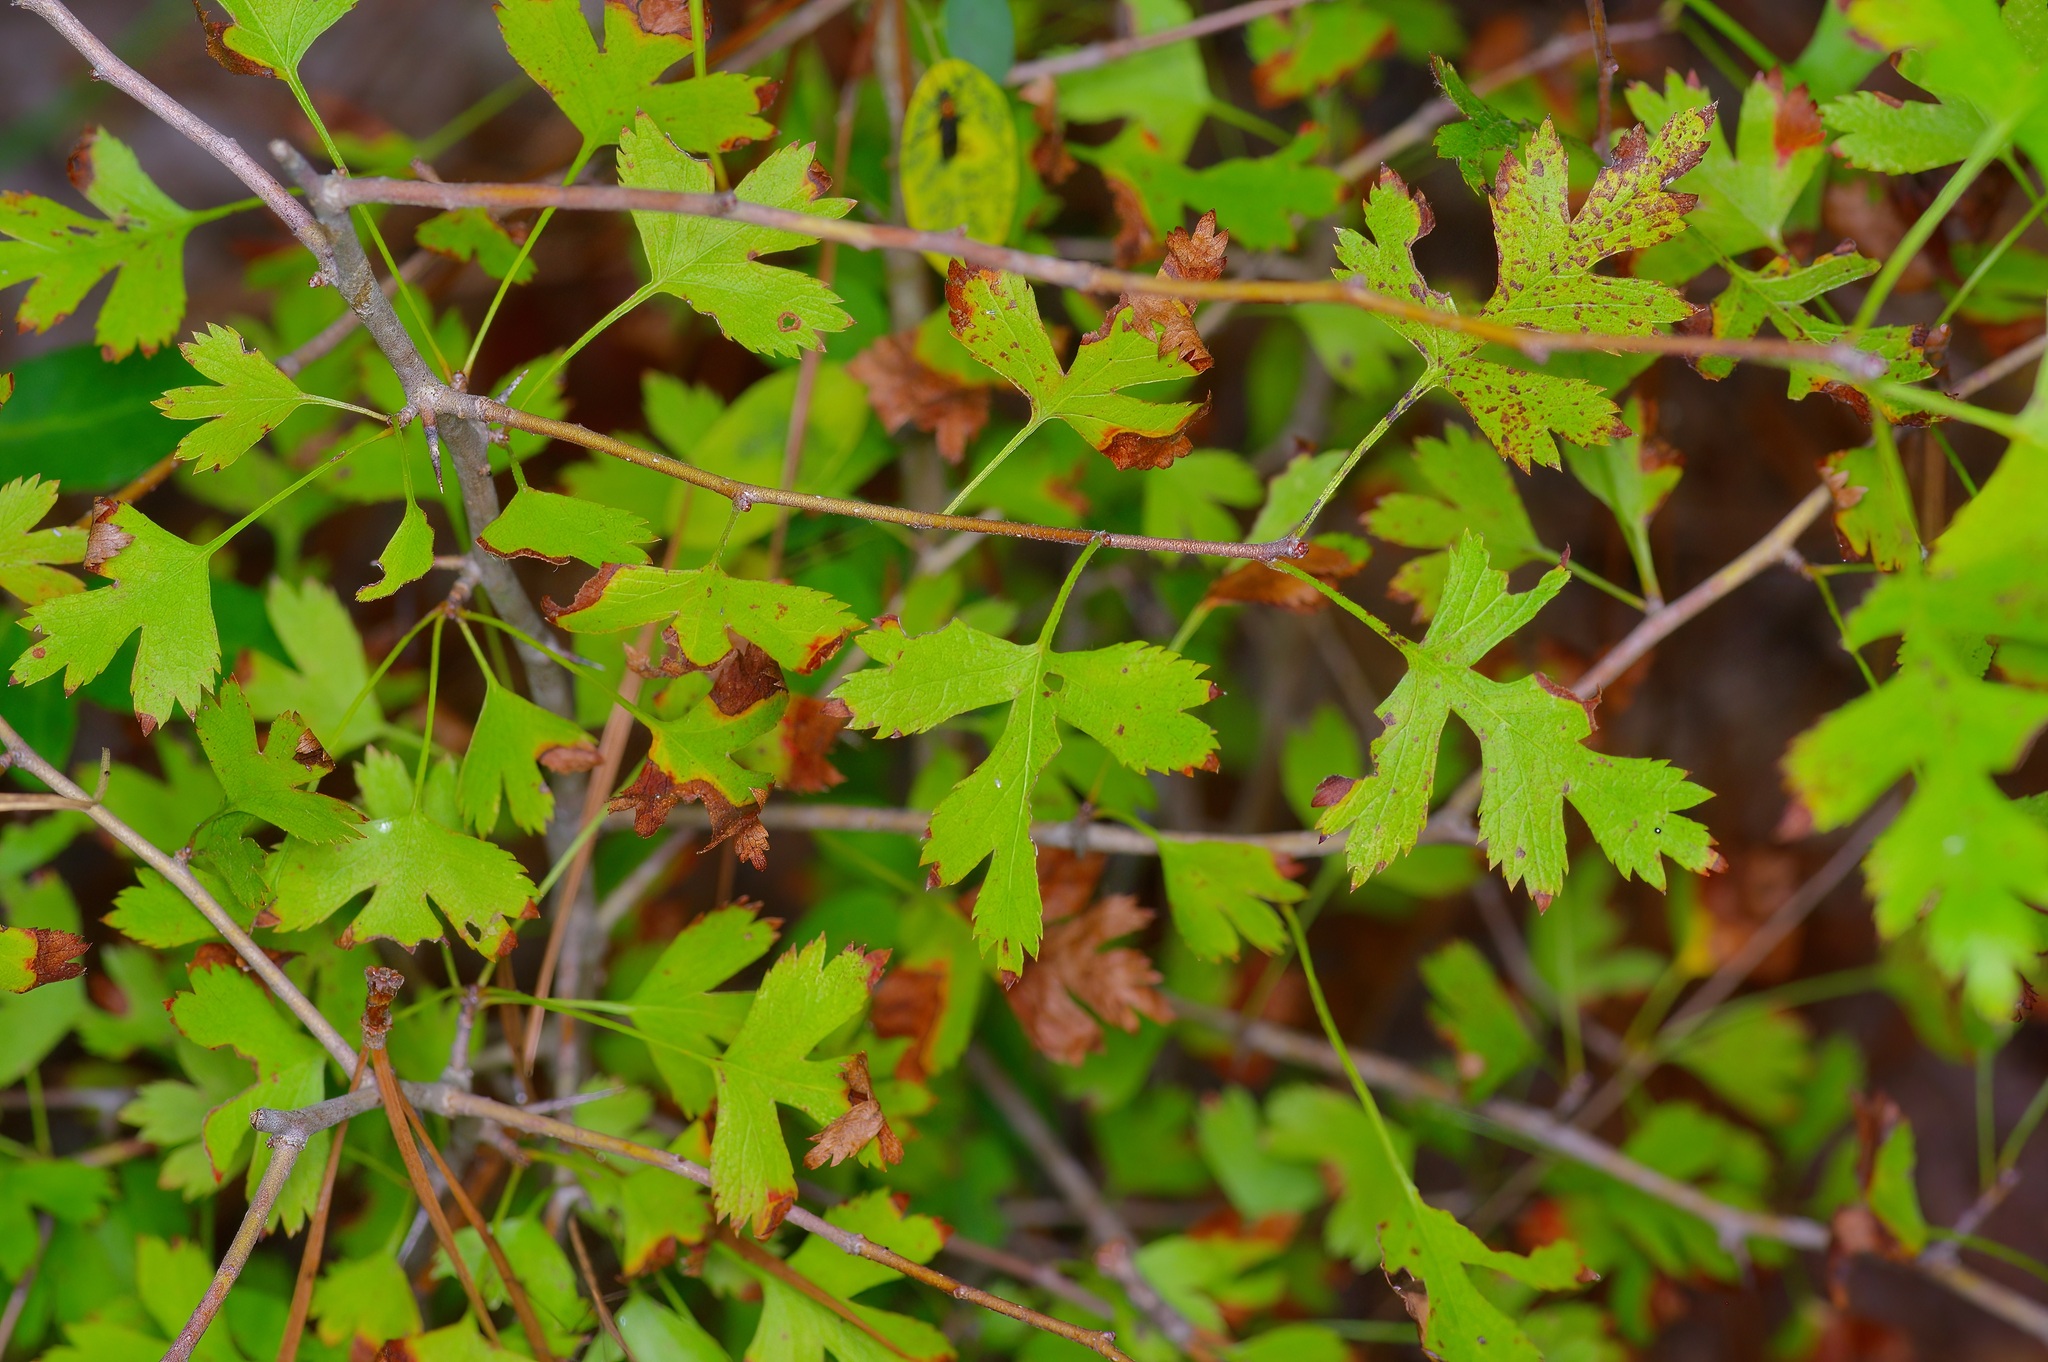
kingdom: Plantae
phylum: Tracheophyta
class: Magnoliopsida
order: Rosales
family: Rosaceae
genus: Crataegus
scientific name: Crataegus marshallii
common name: Parsley-hawthorn
